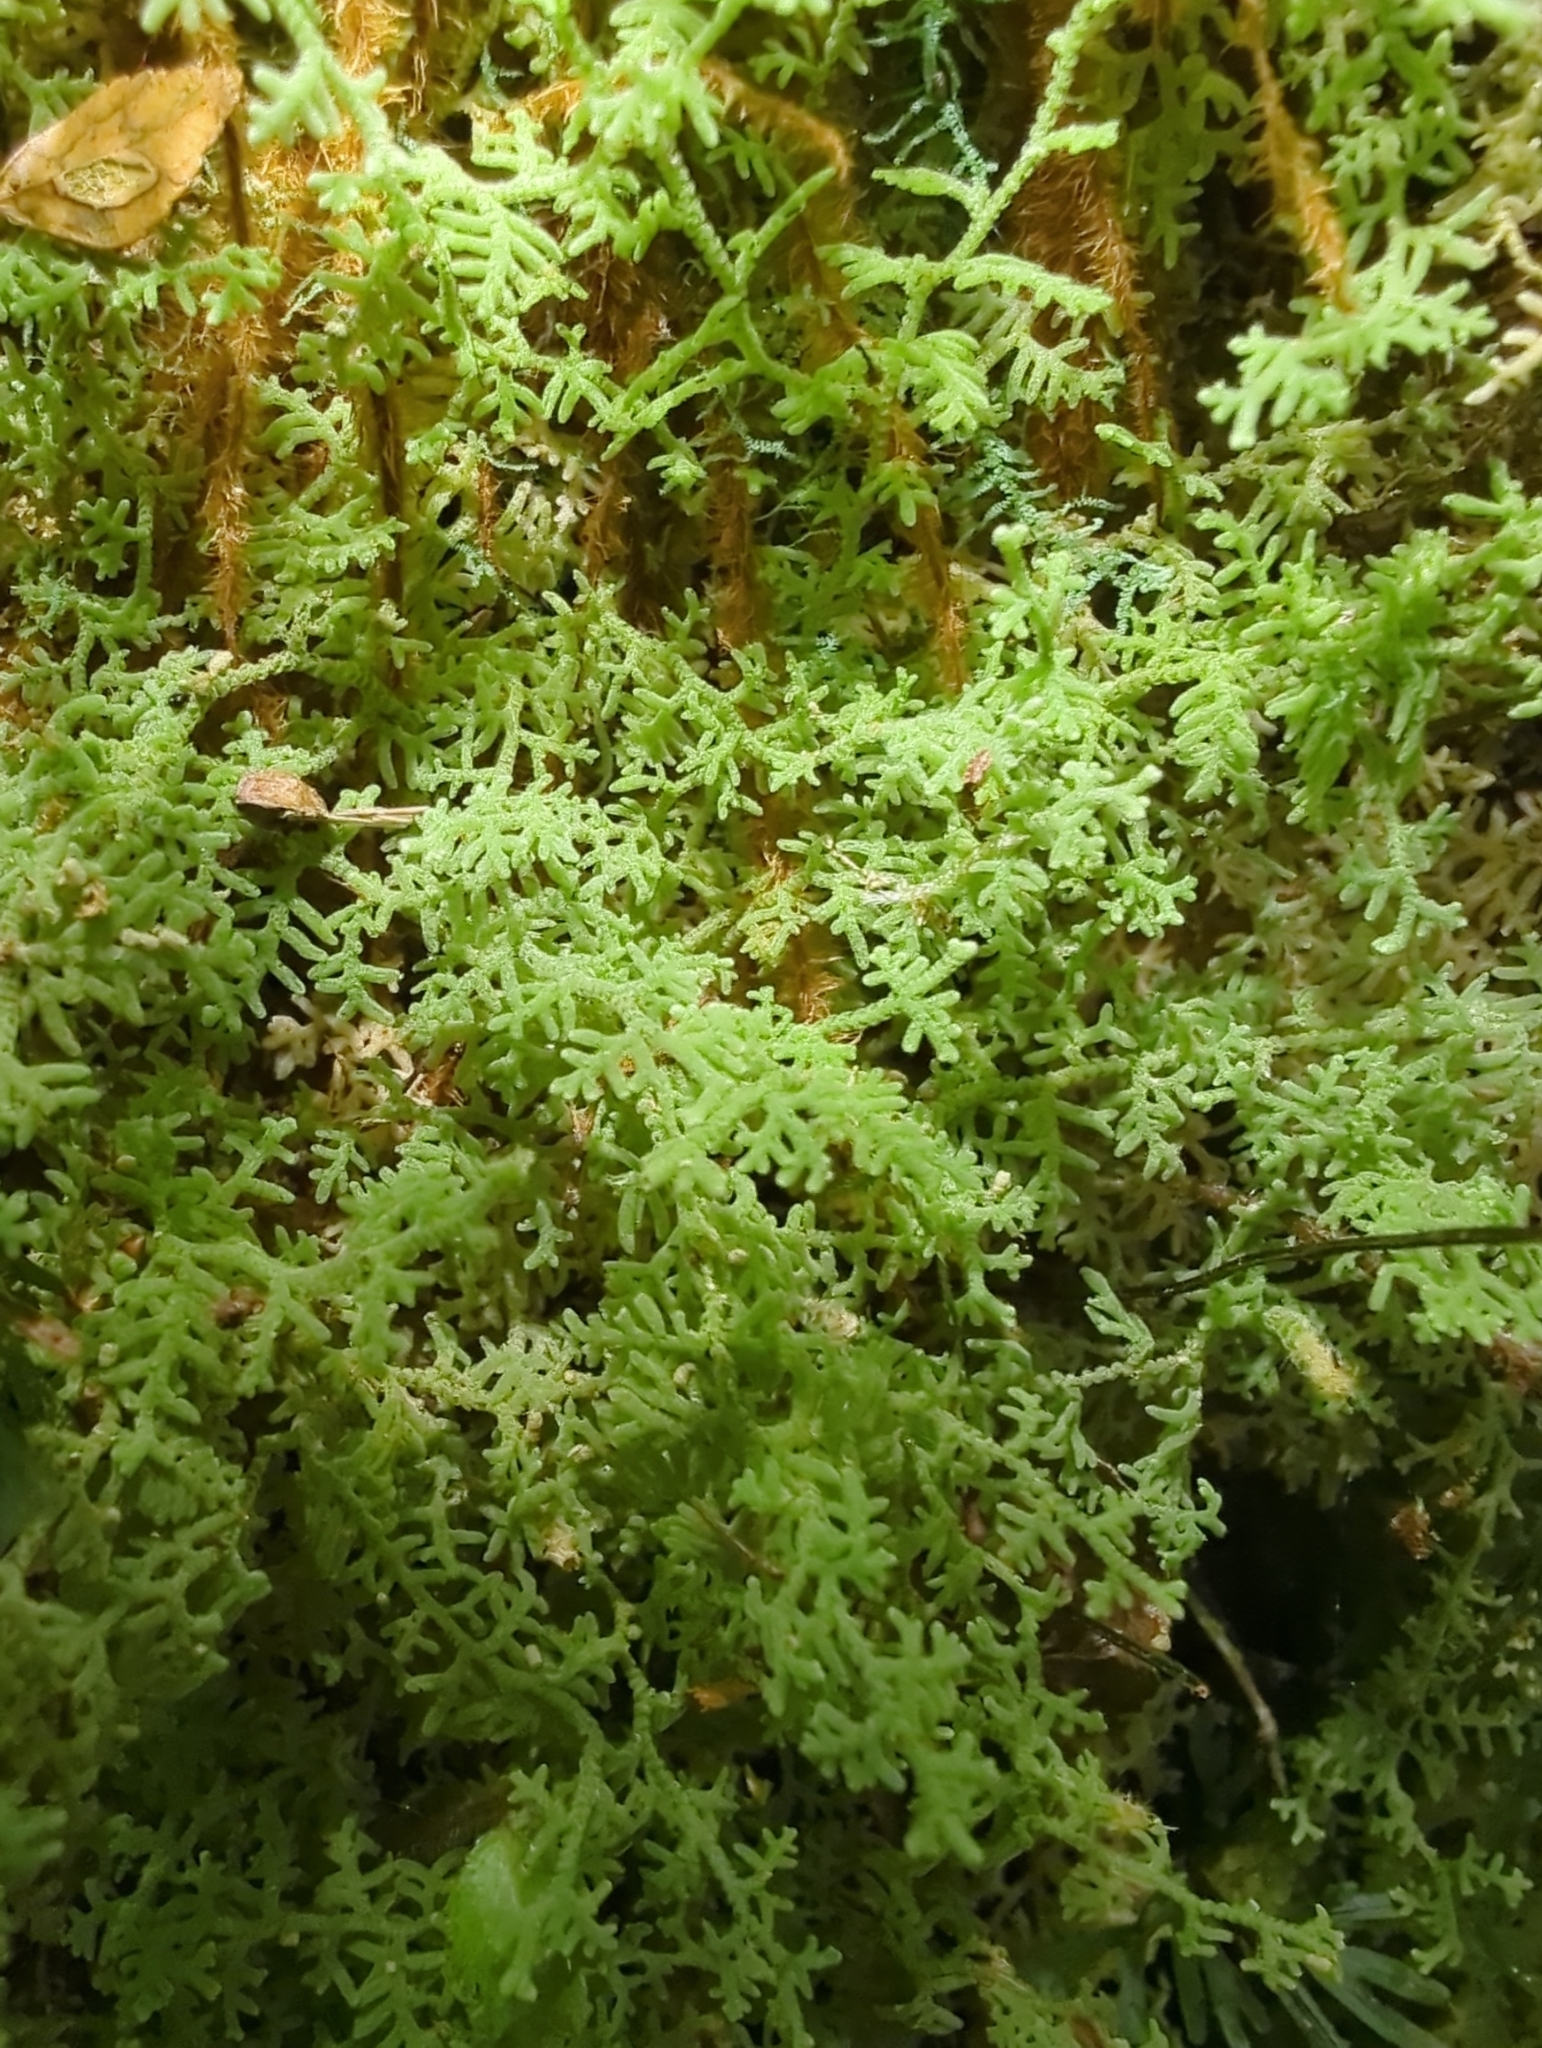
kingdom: Plantae
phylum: Marchantiophyta
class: Jungermanniopsida
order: Jungermanniales
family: Trichocoleaceae
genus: Trichocolea
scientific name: Trichocolea mollissima
